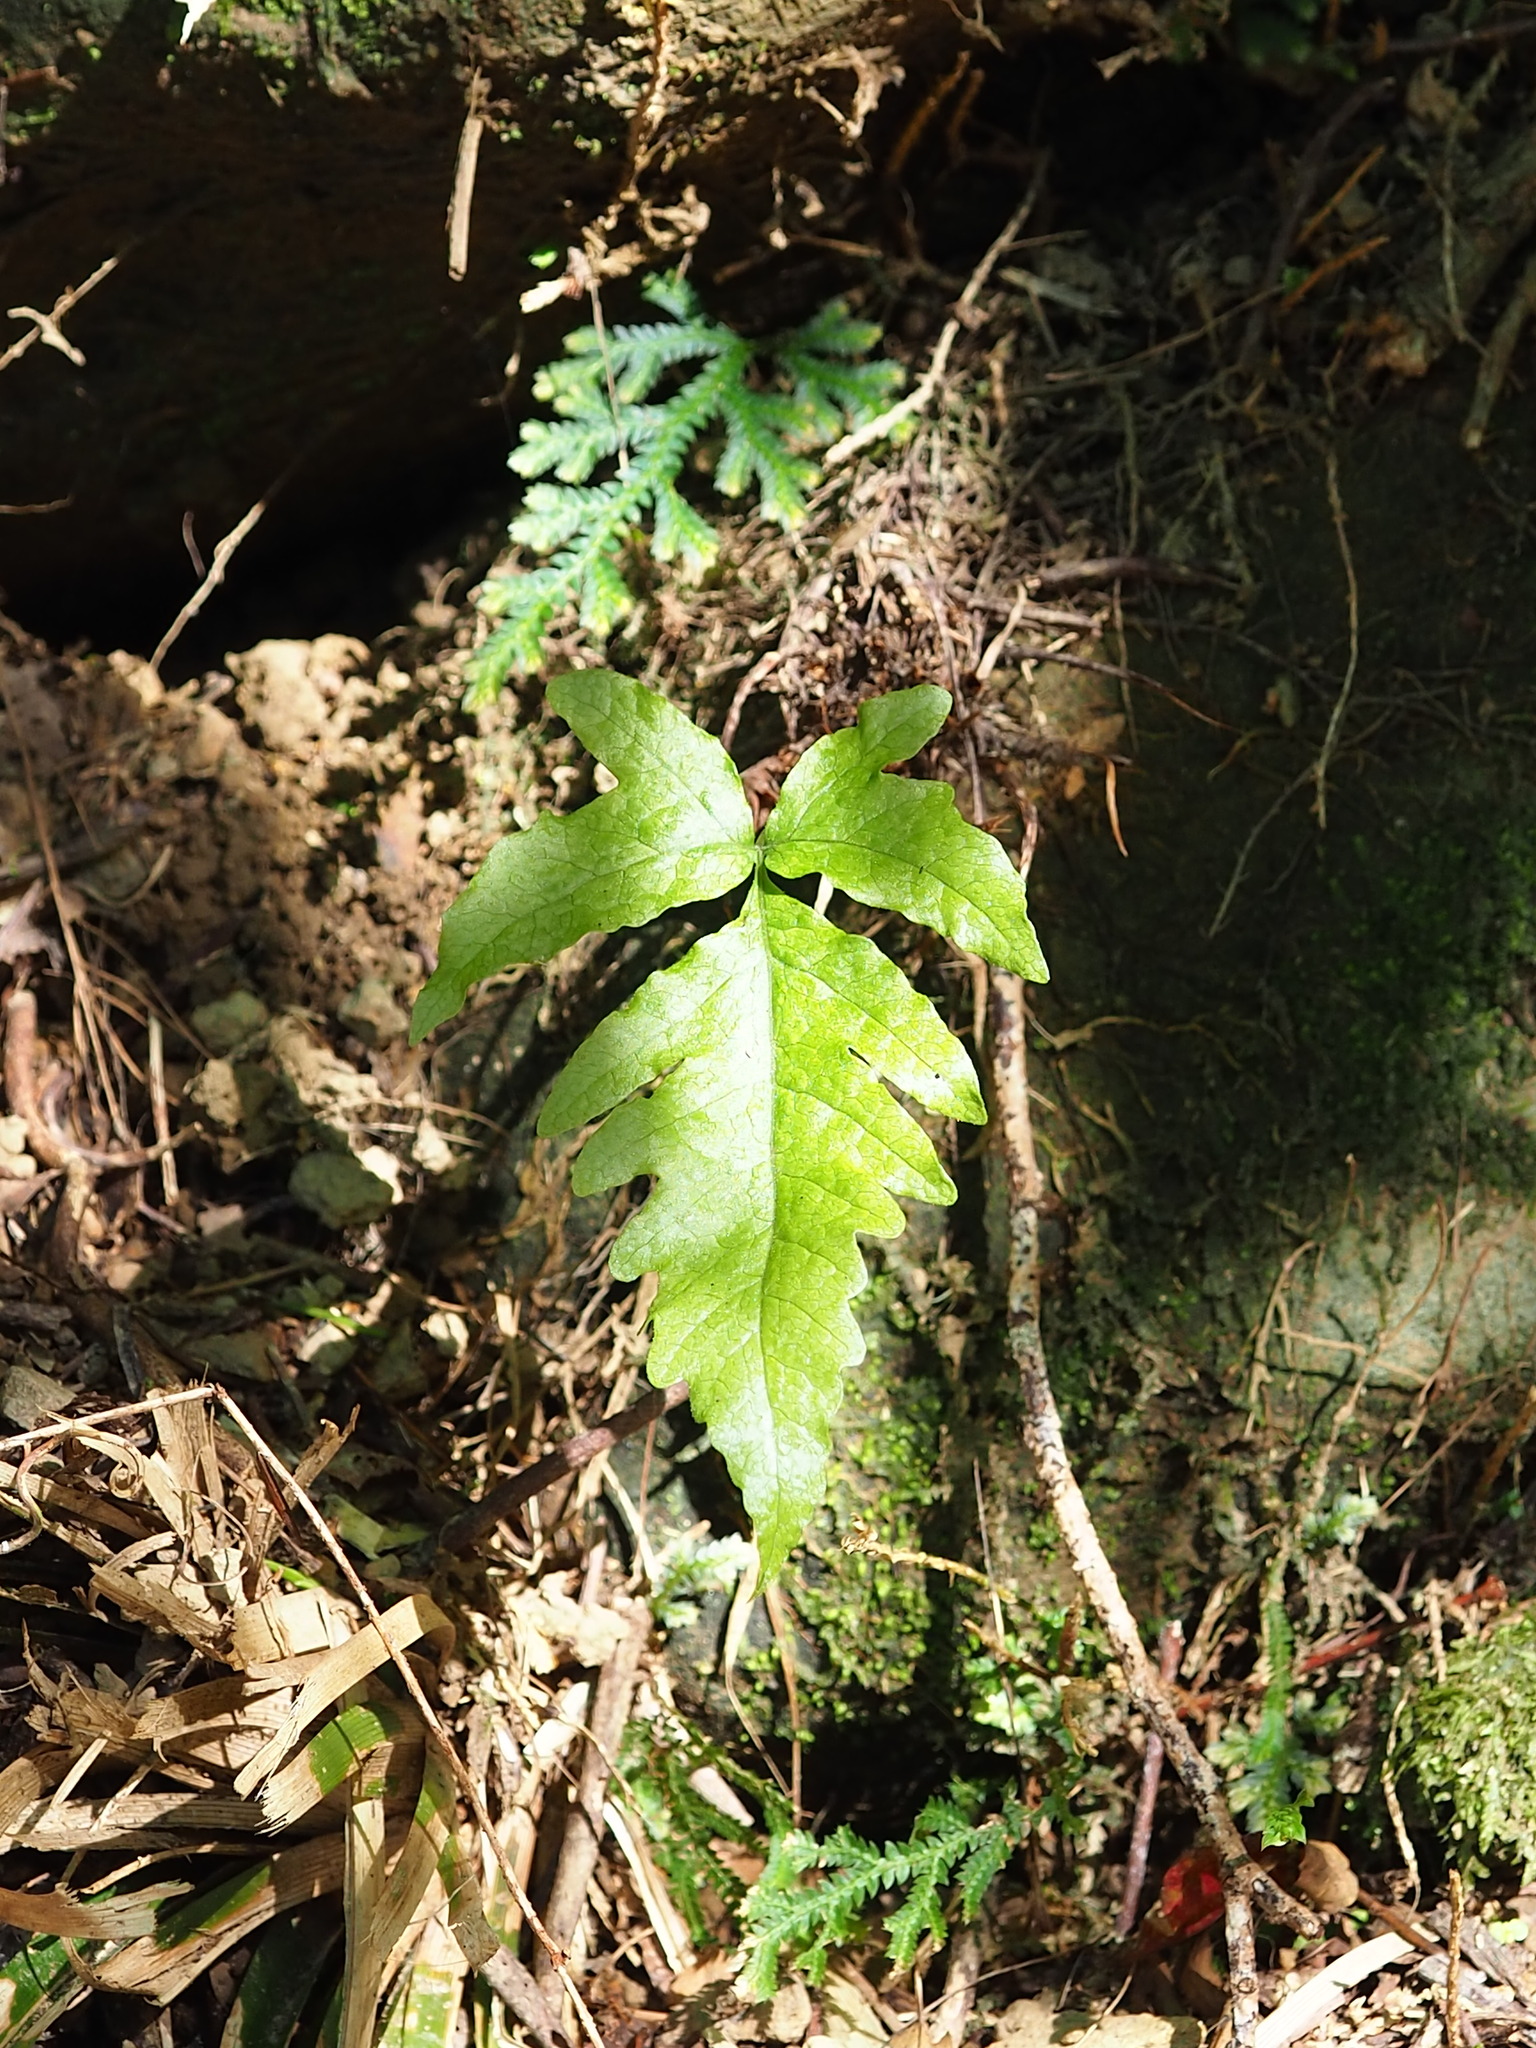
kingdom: Plantae
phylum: Tracheophyta
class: Polypodiopsida
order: Polypodiales
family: Tectariaceae
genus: Tectaria
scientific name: Tectaria phaeocaulis
